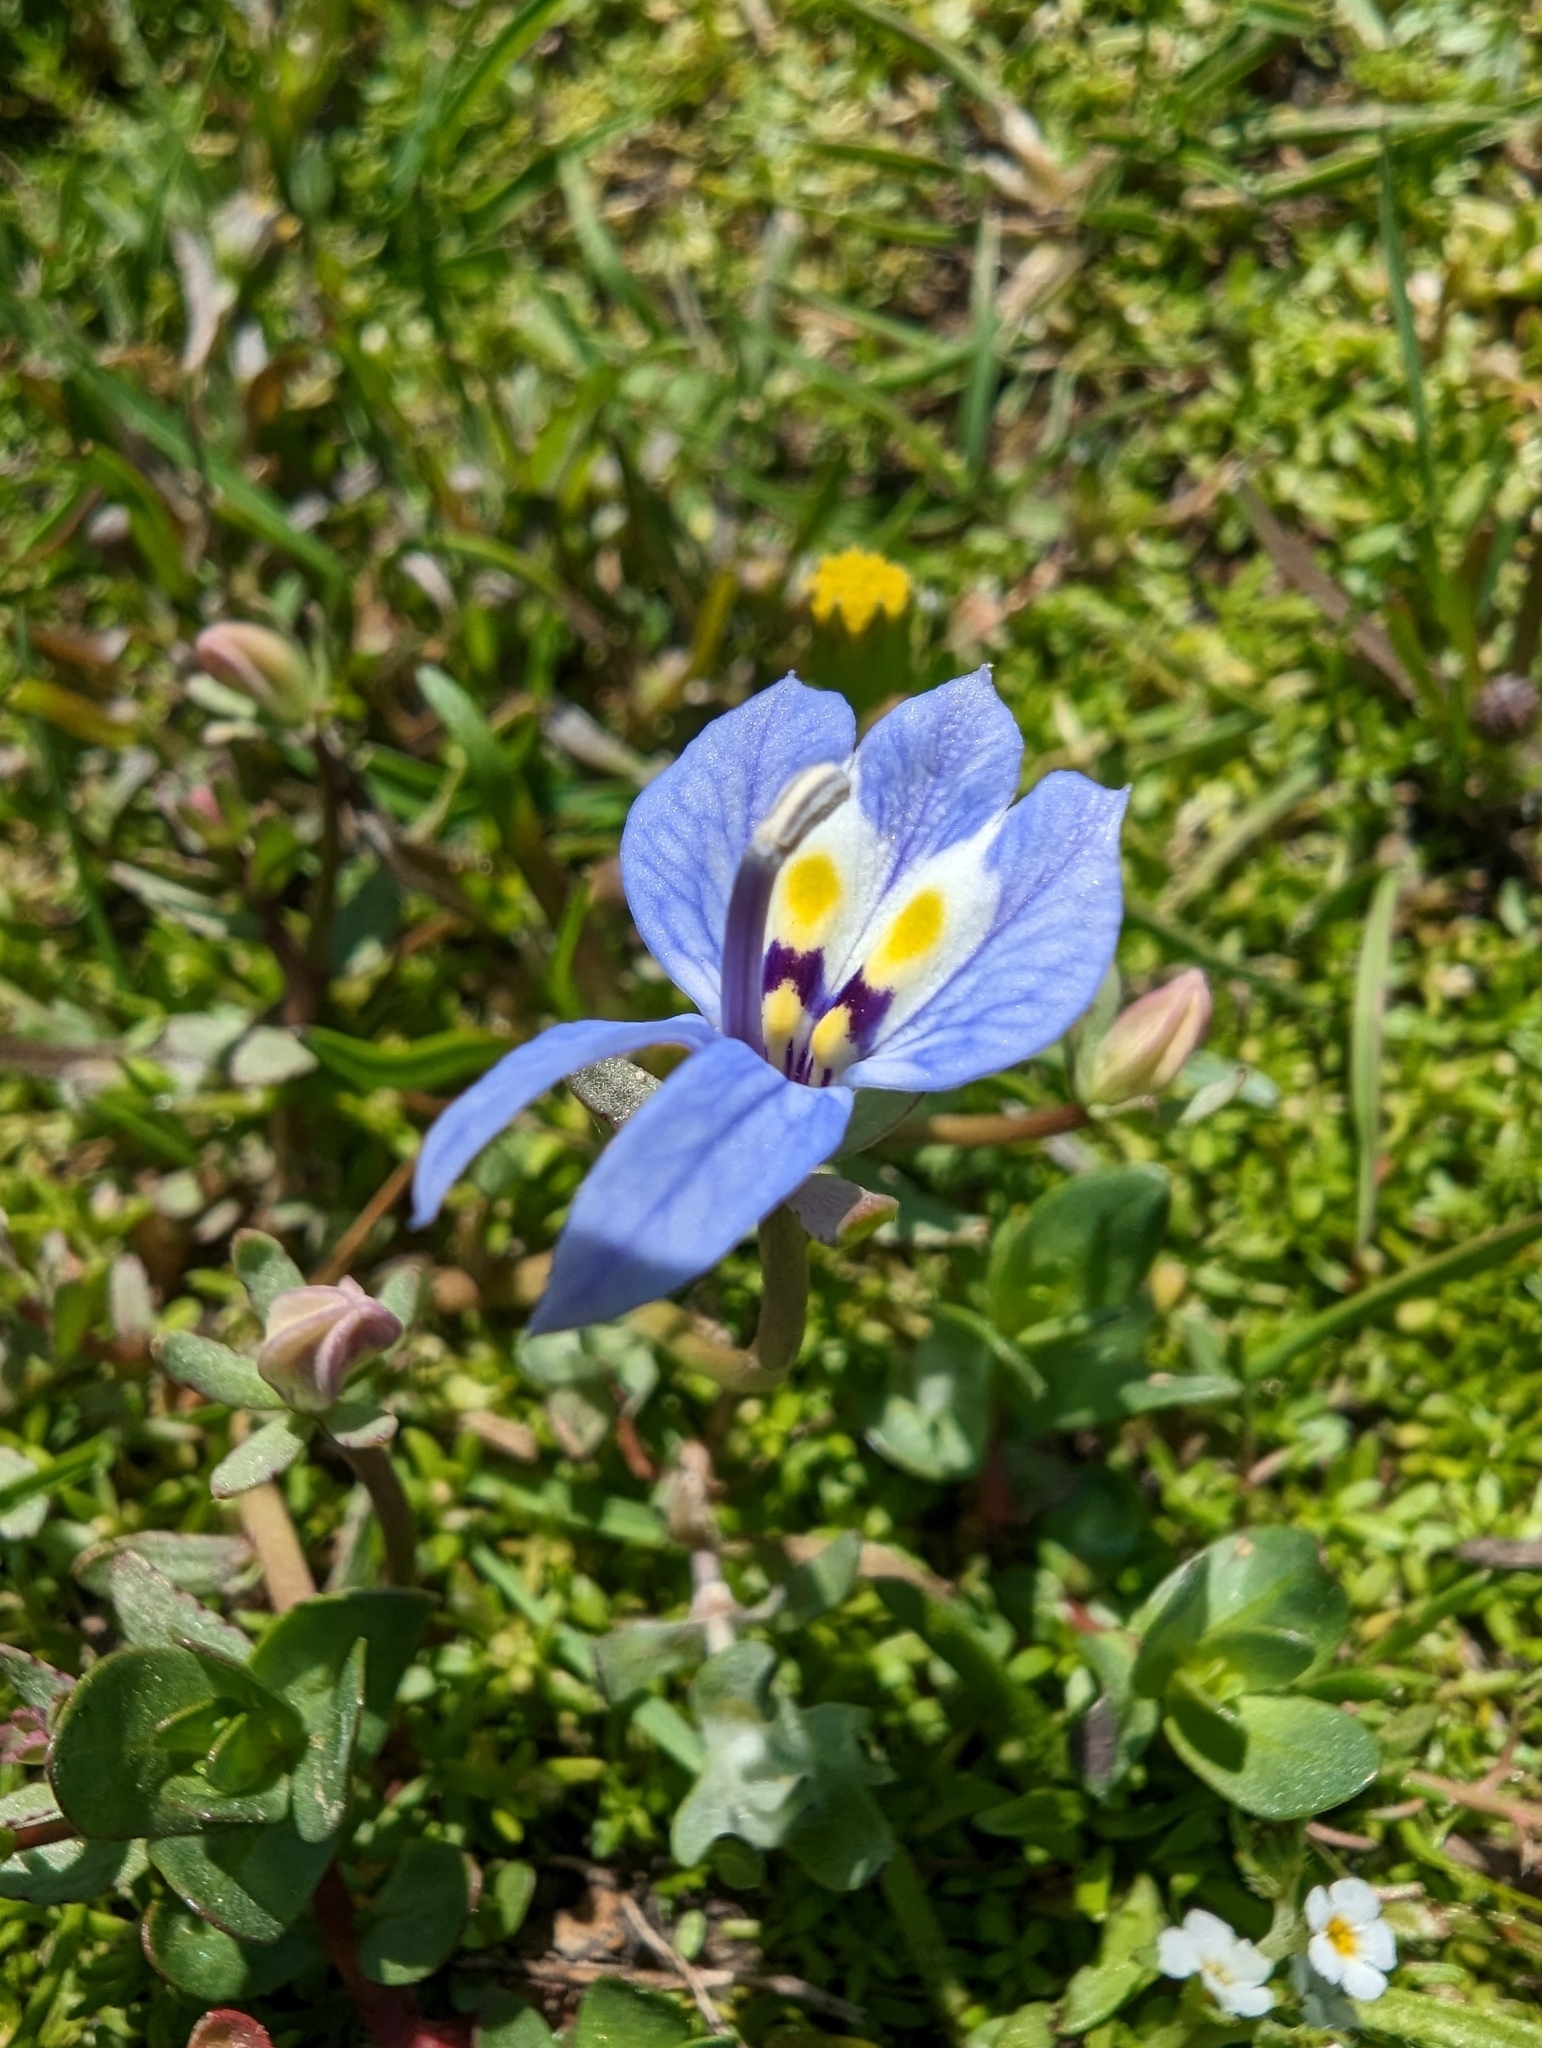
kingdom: Plantae
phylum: Tracheophyta
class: Magnoliopsida
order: Asterales
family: Campanulaceae
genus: Downingia
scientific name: Downingia insignis
